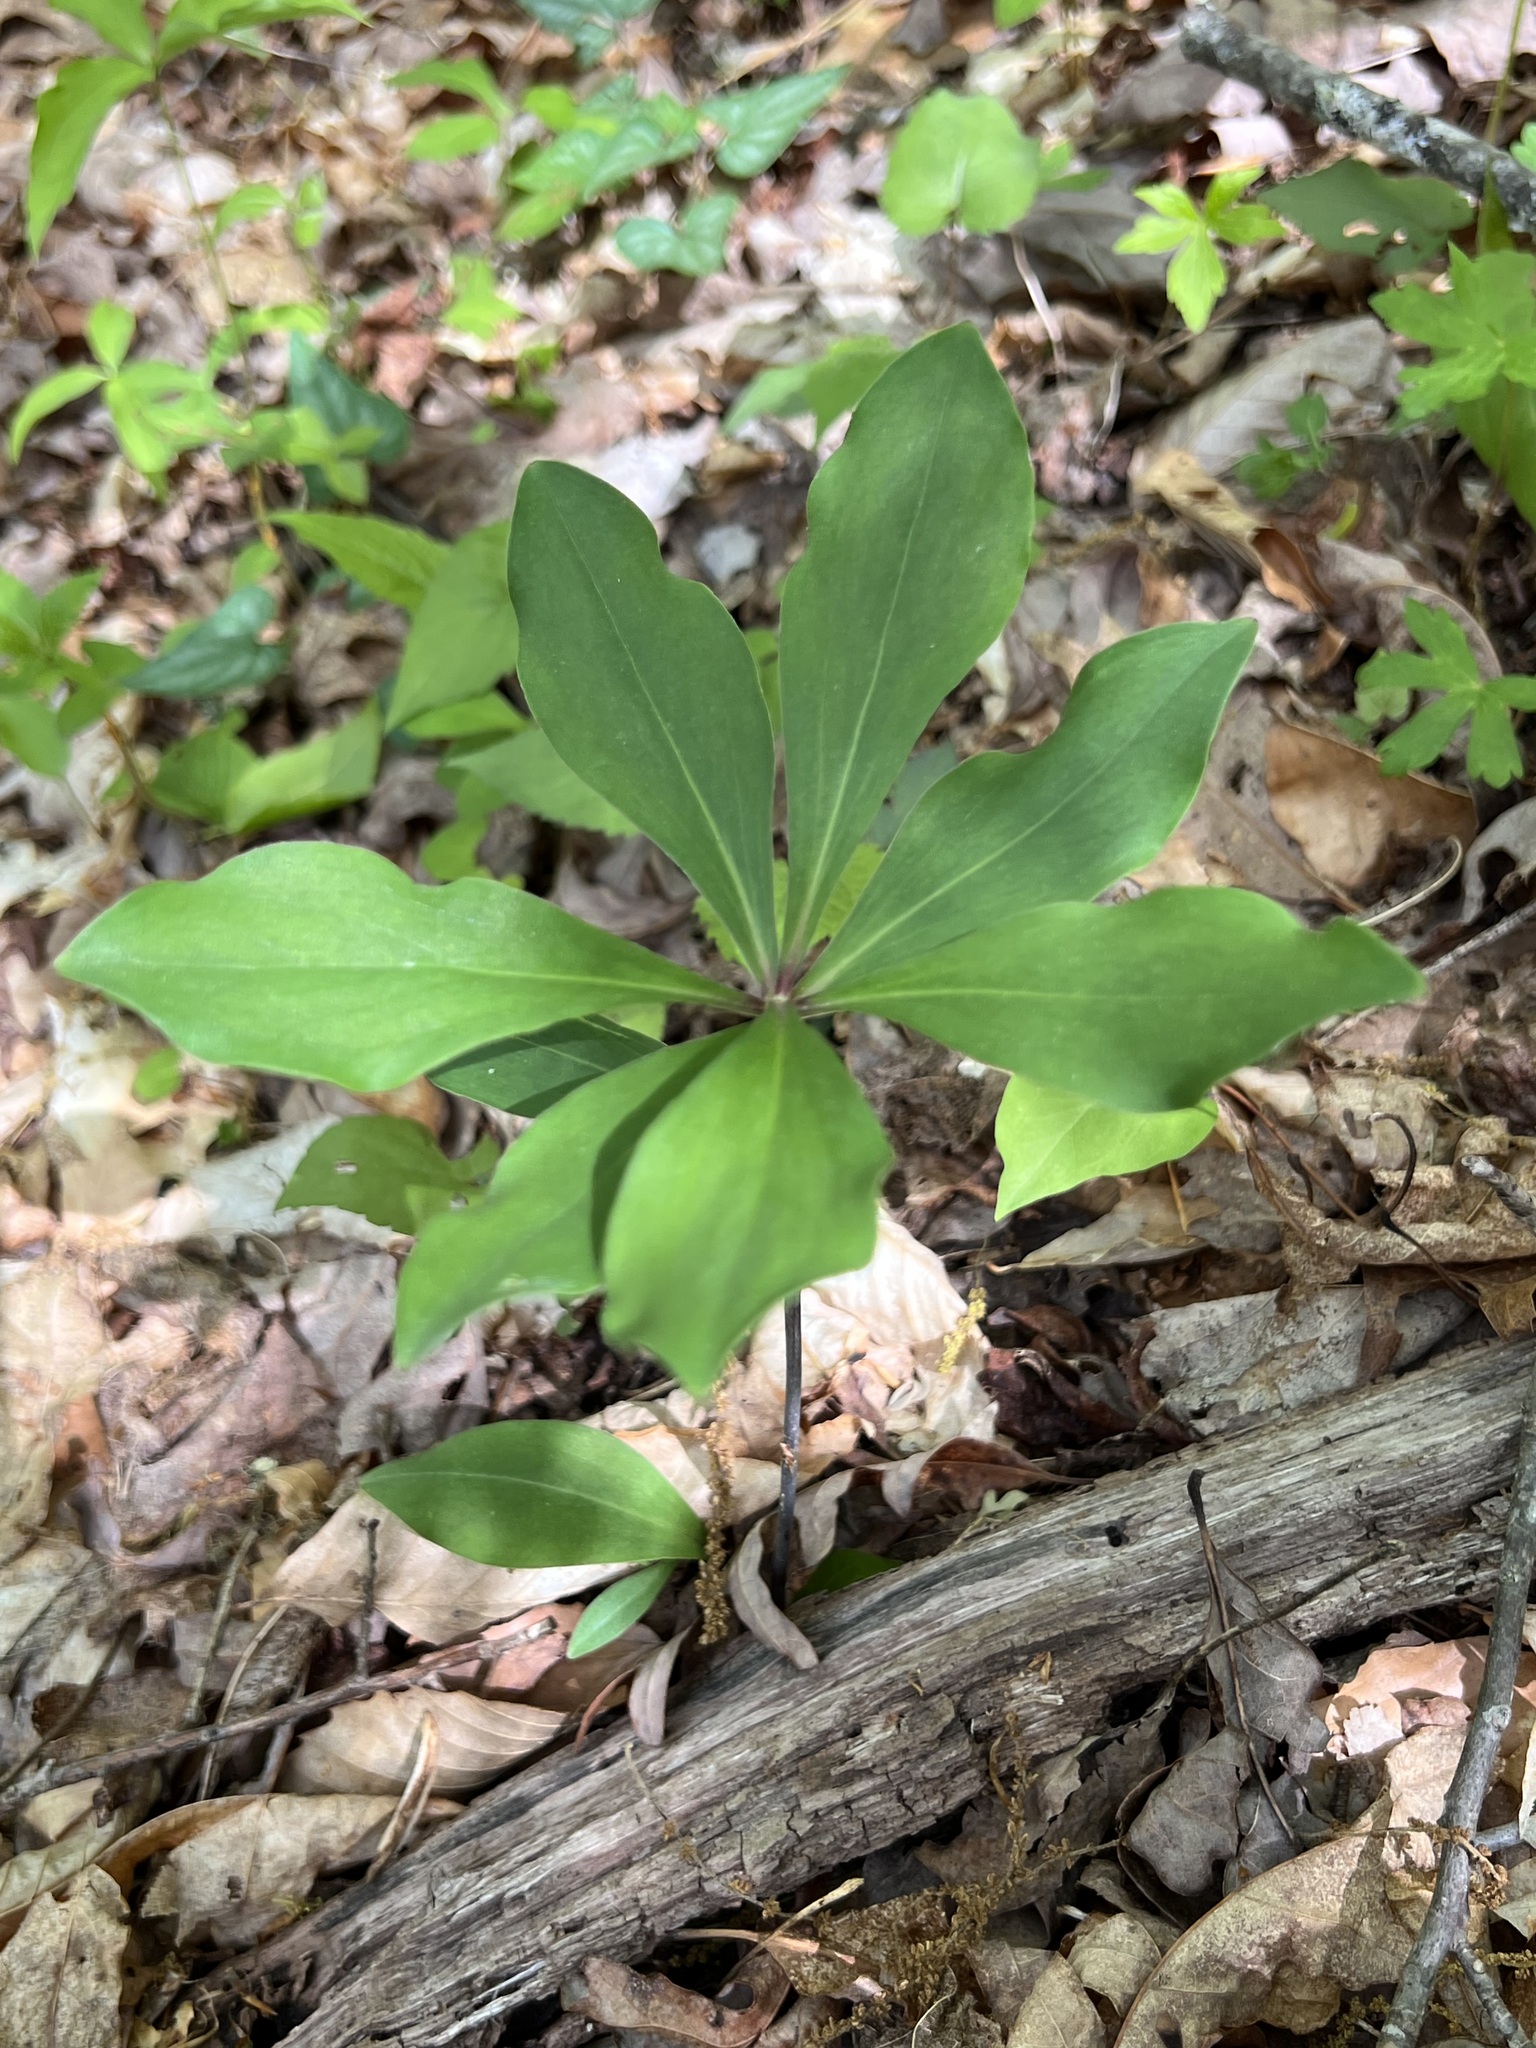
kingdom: Plantae
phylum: Tracheophyta
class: Liliopsida
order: Liliales
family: Liliaceae
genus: Lilium
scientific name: Lilium michauxii
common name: Carolina lily
